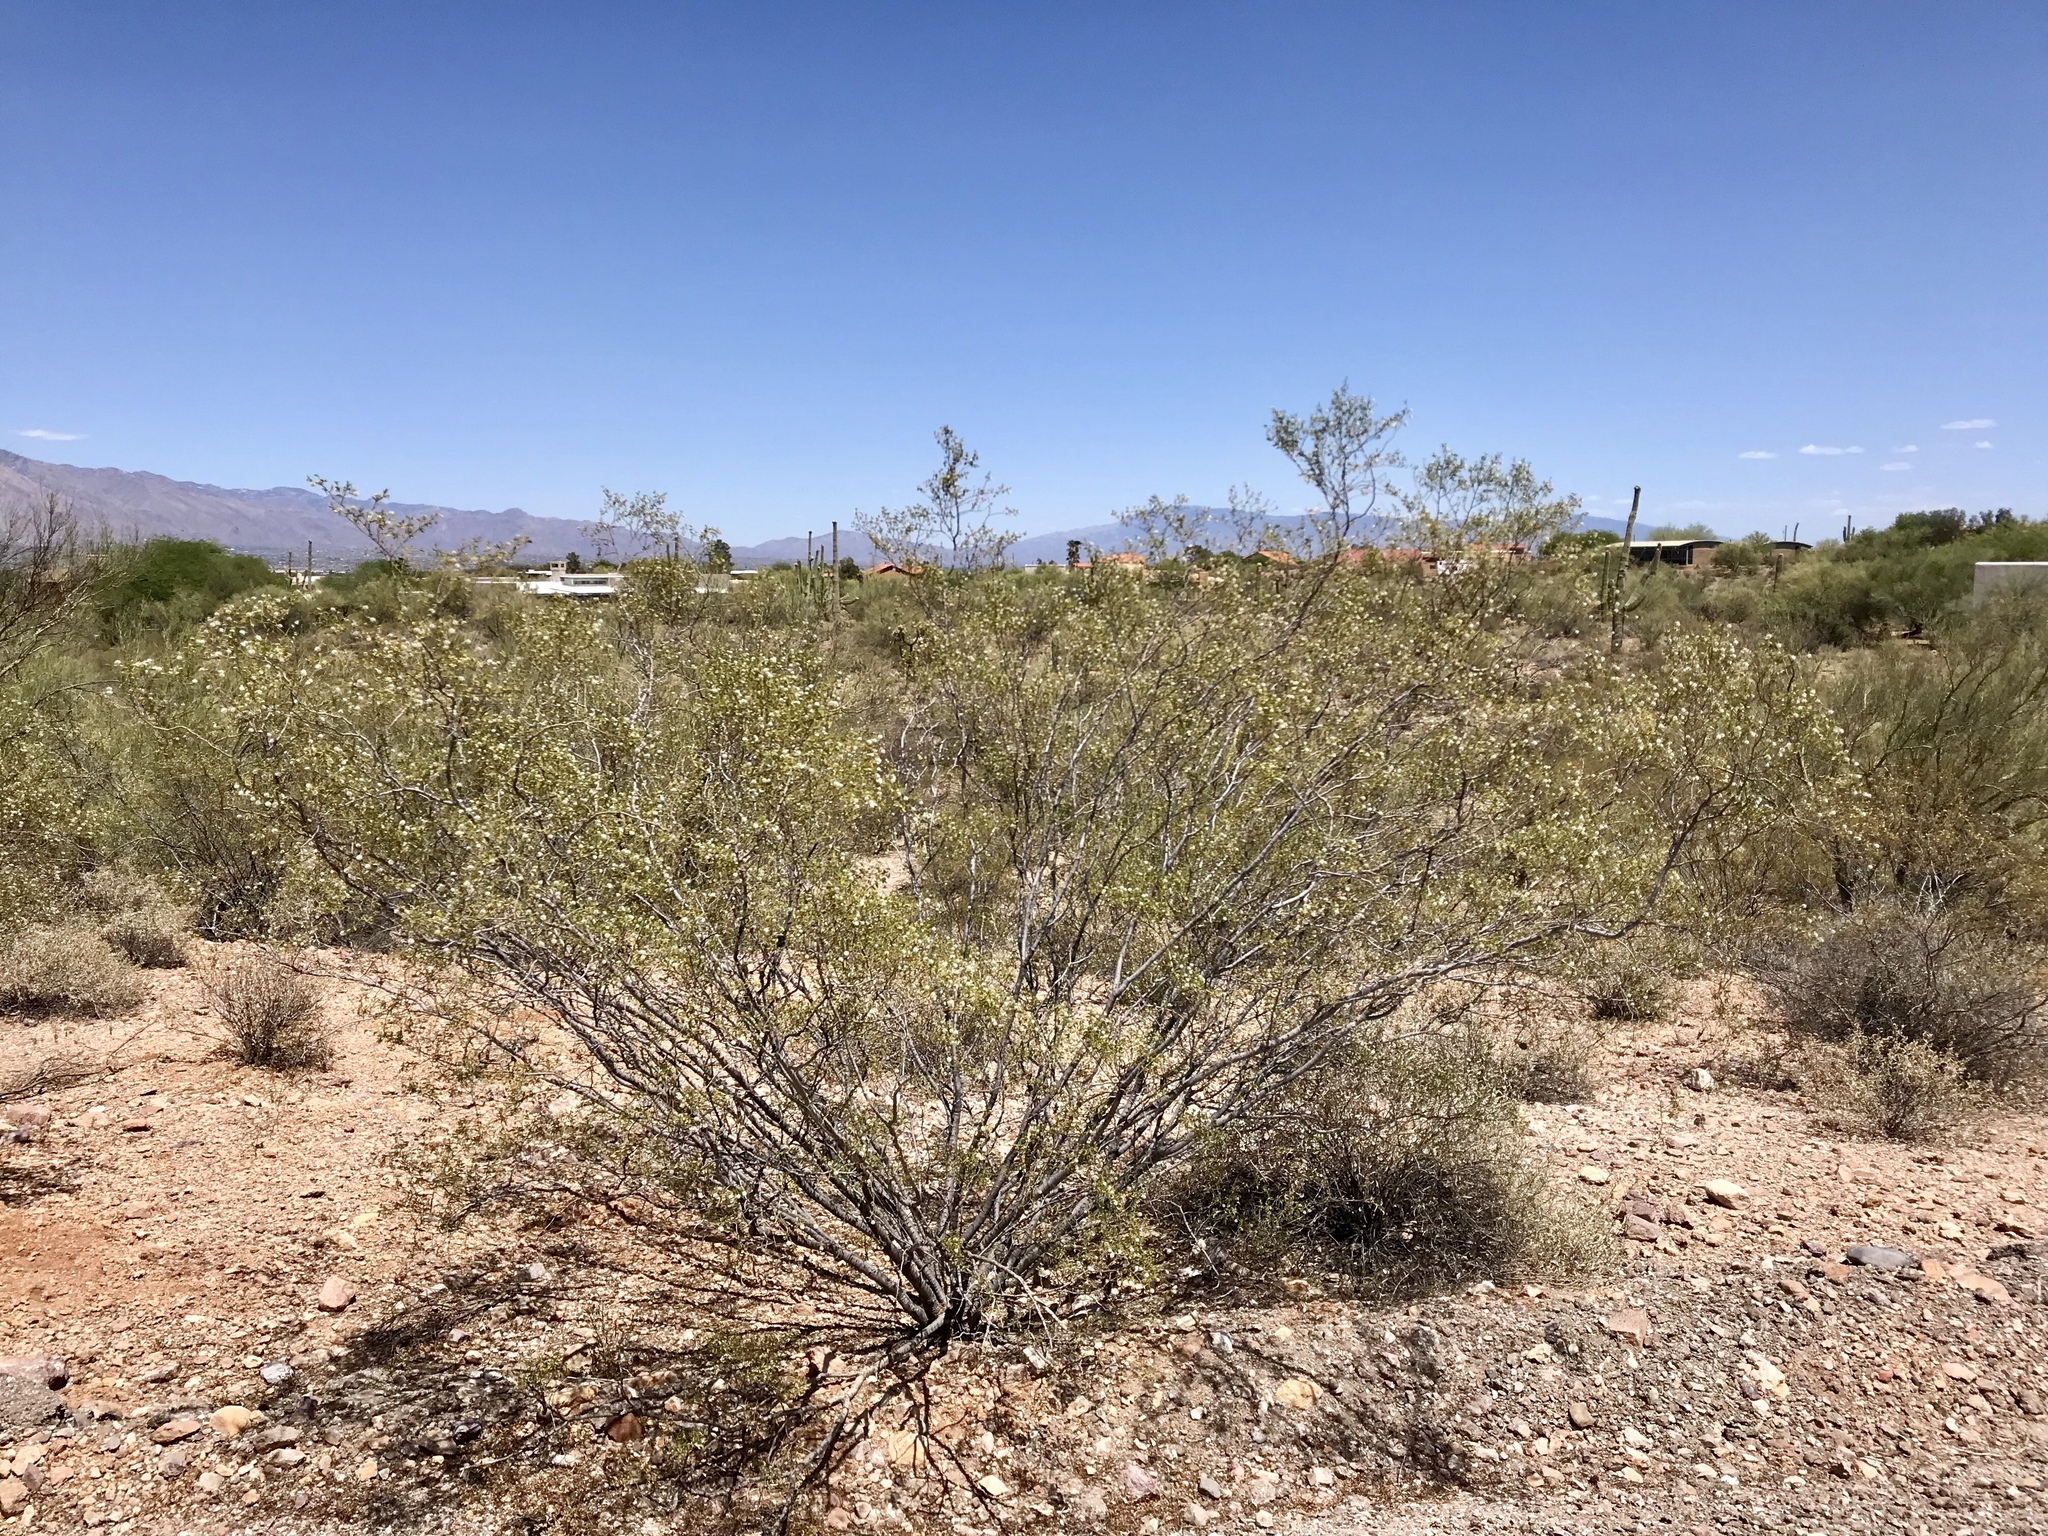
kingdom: Plantae
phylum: Tracheophyta
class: Magnoliopsida
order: Zygophyllales
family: Zygophyllaceae
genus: Larrea
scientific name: Larrea tridentata
